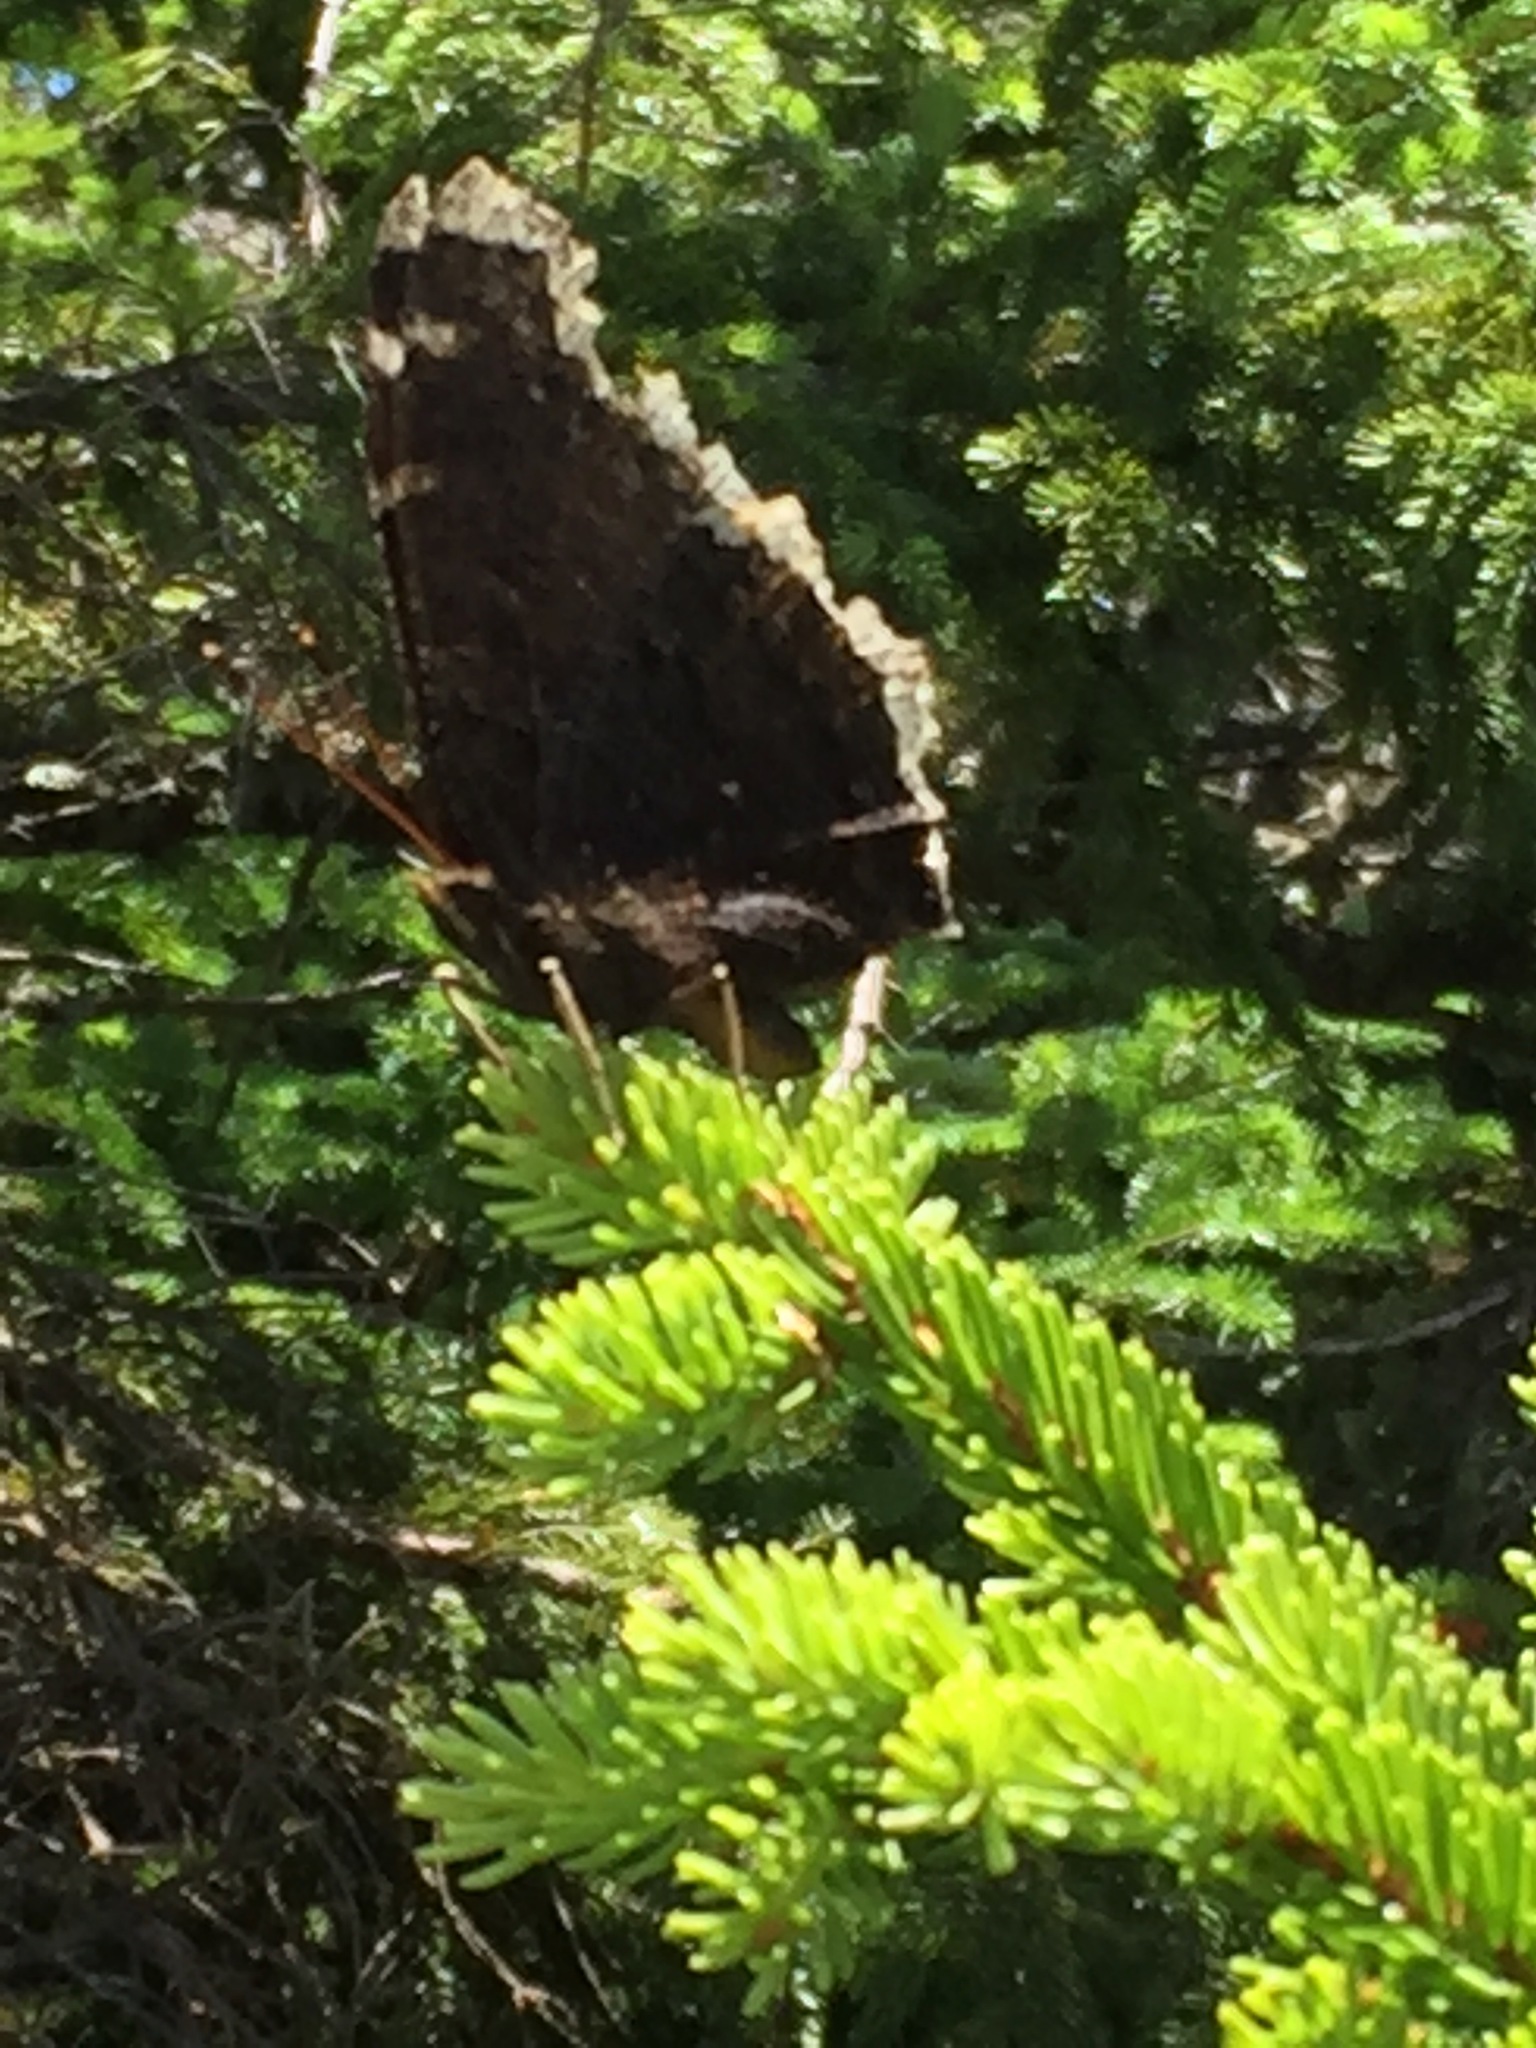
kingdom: Animalia
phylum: Arthropoda
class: Insecta
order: Lepidoptera
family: Nymphalidae
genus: Nymphalis
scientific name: Nymphalis antiopa
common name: Camberwell beauty
